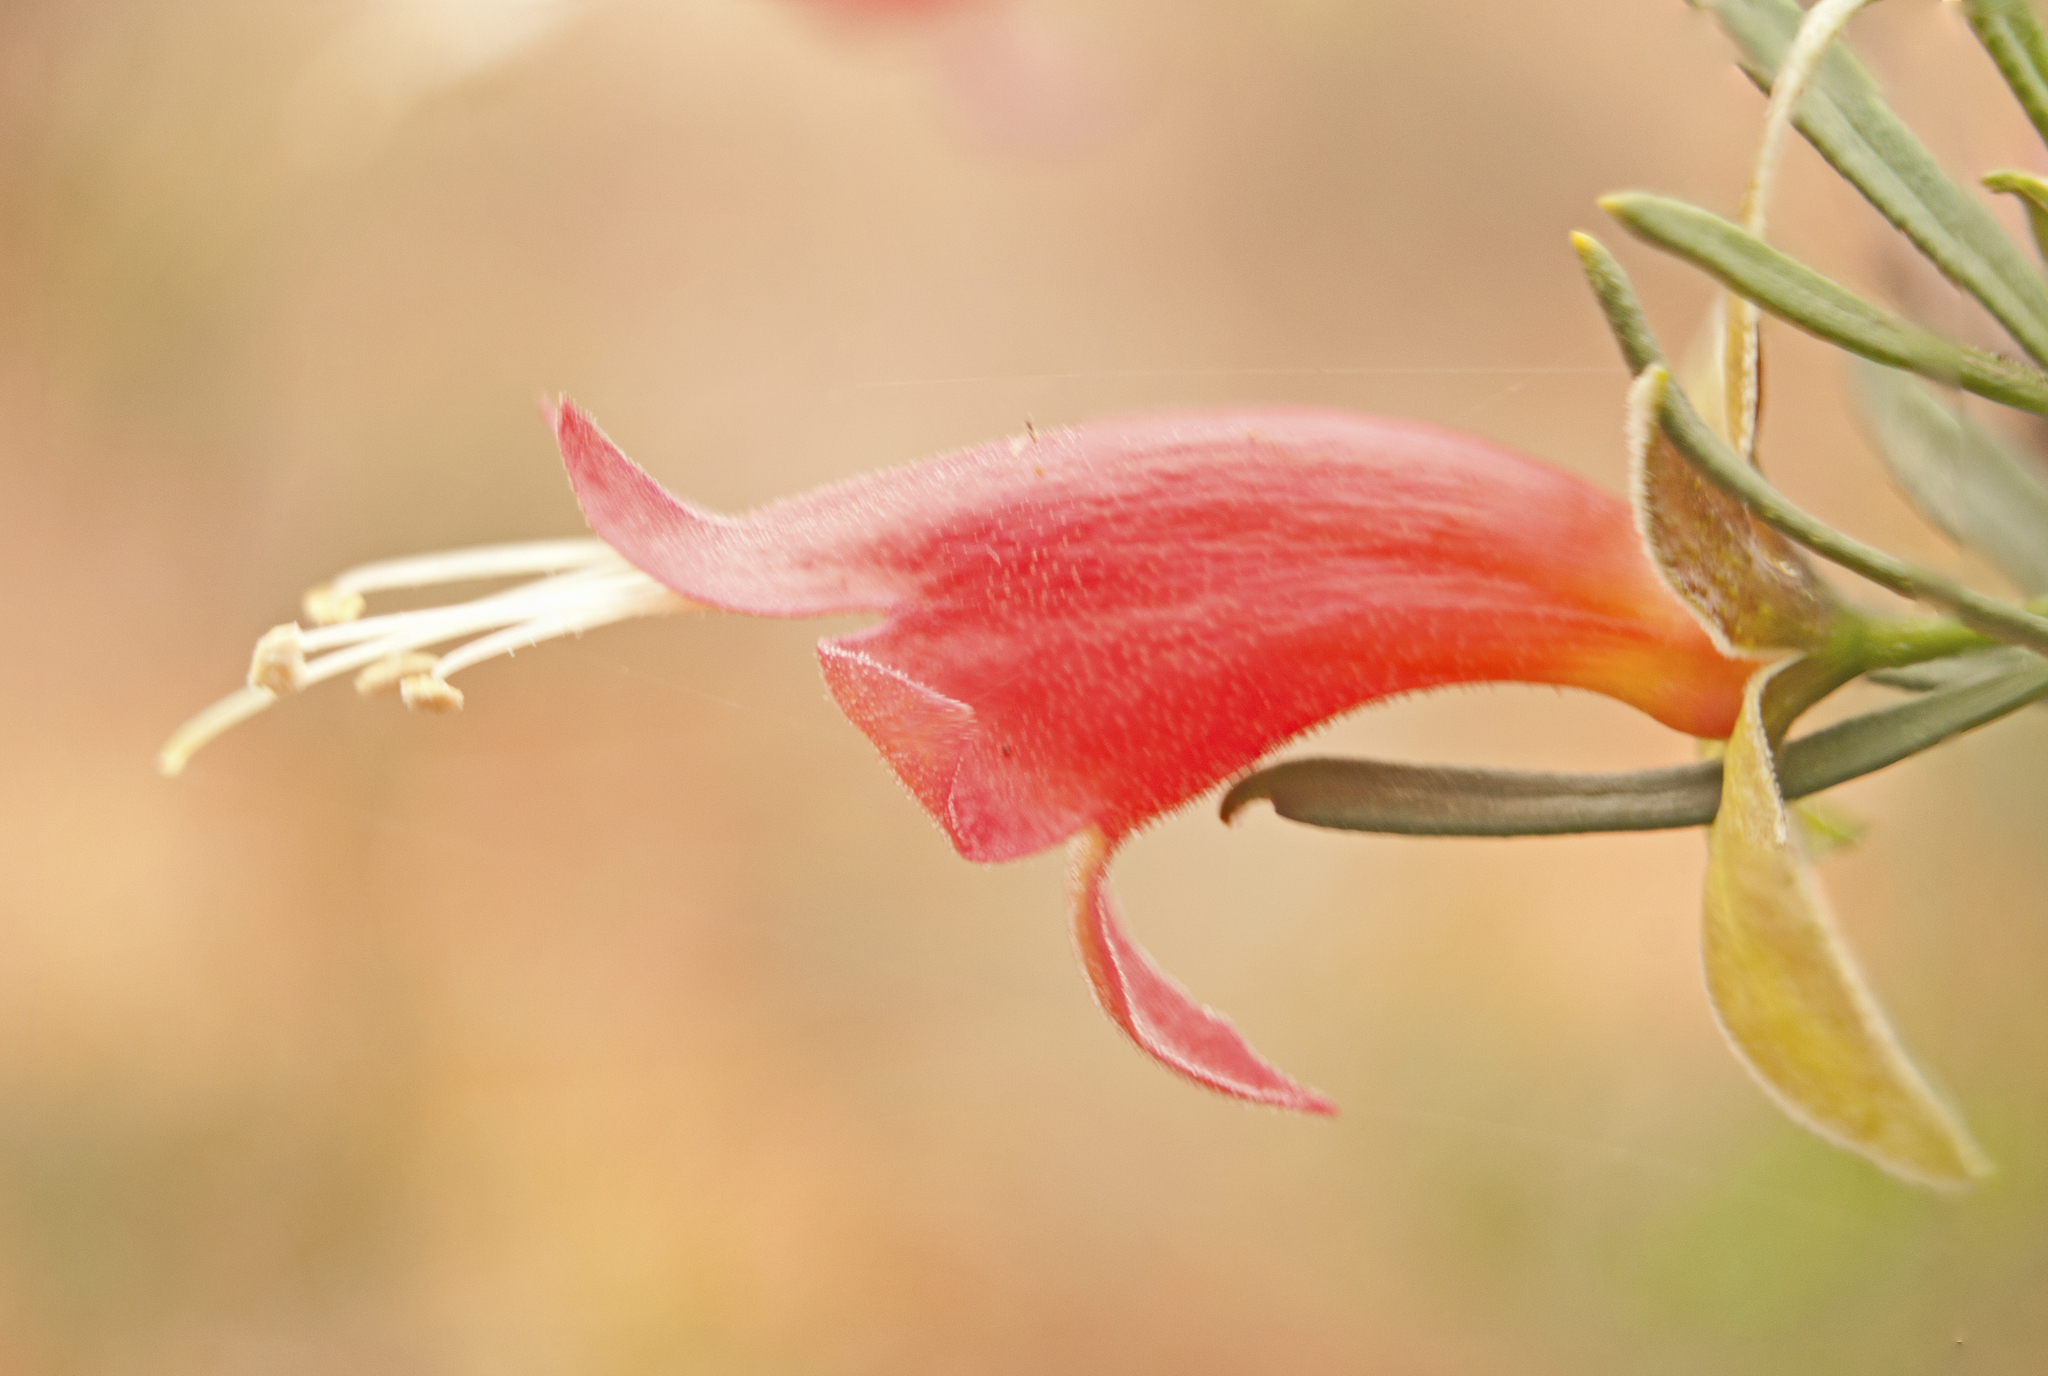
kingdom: Plantae
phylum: Tracheophyta
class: Magnoliopsida
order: Lamiales
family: Scrophulariaceae
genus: Eremophila
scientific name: Eremophila latrobei
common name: Crimson turkeybush
